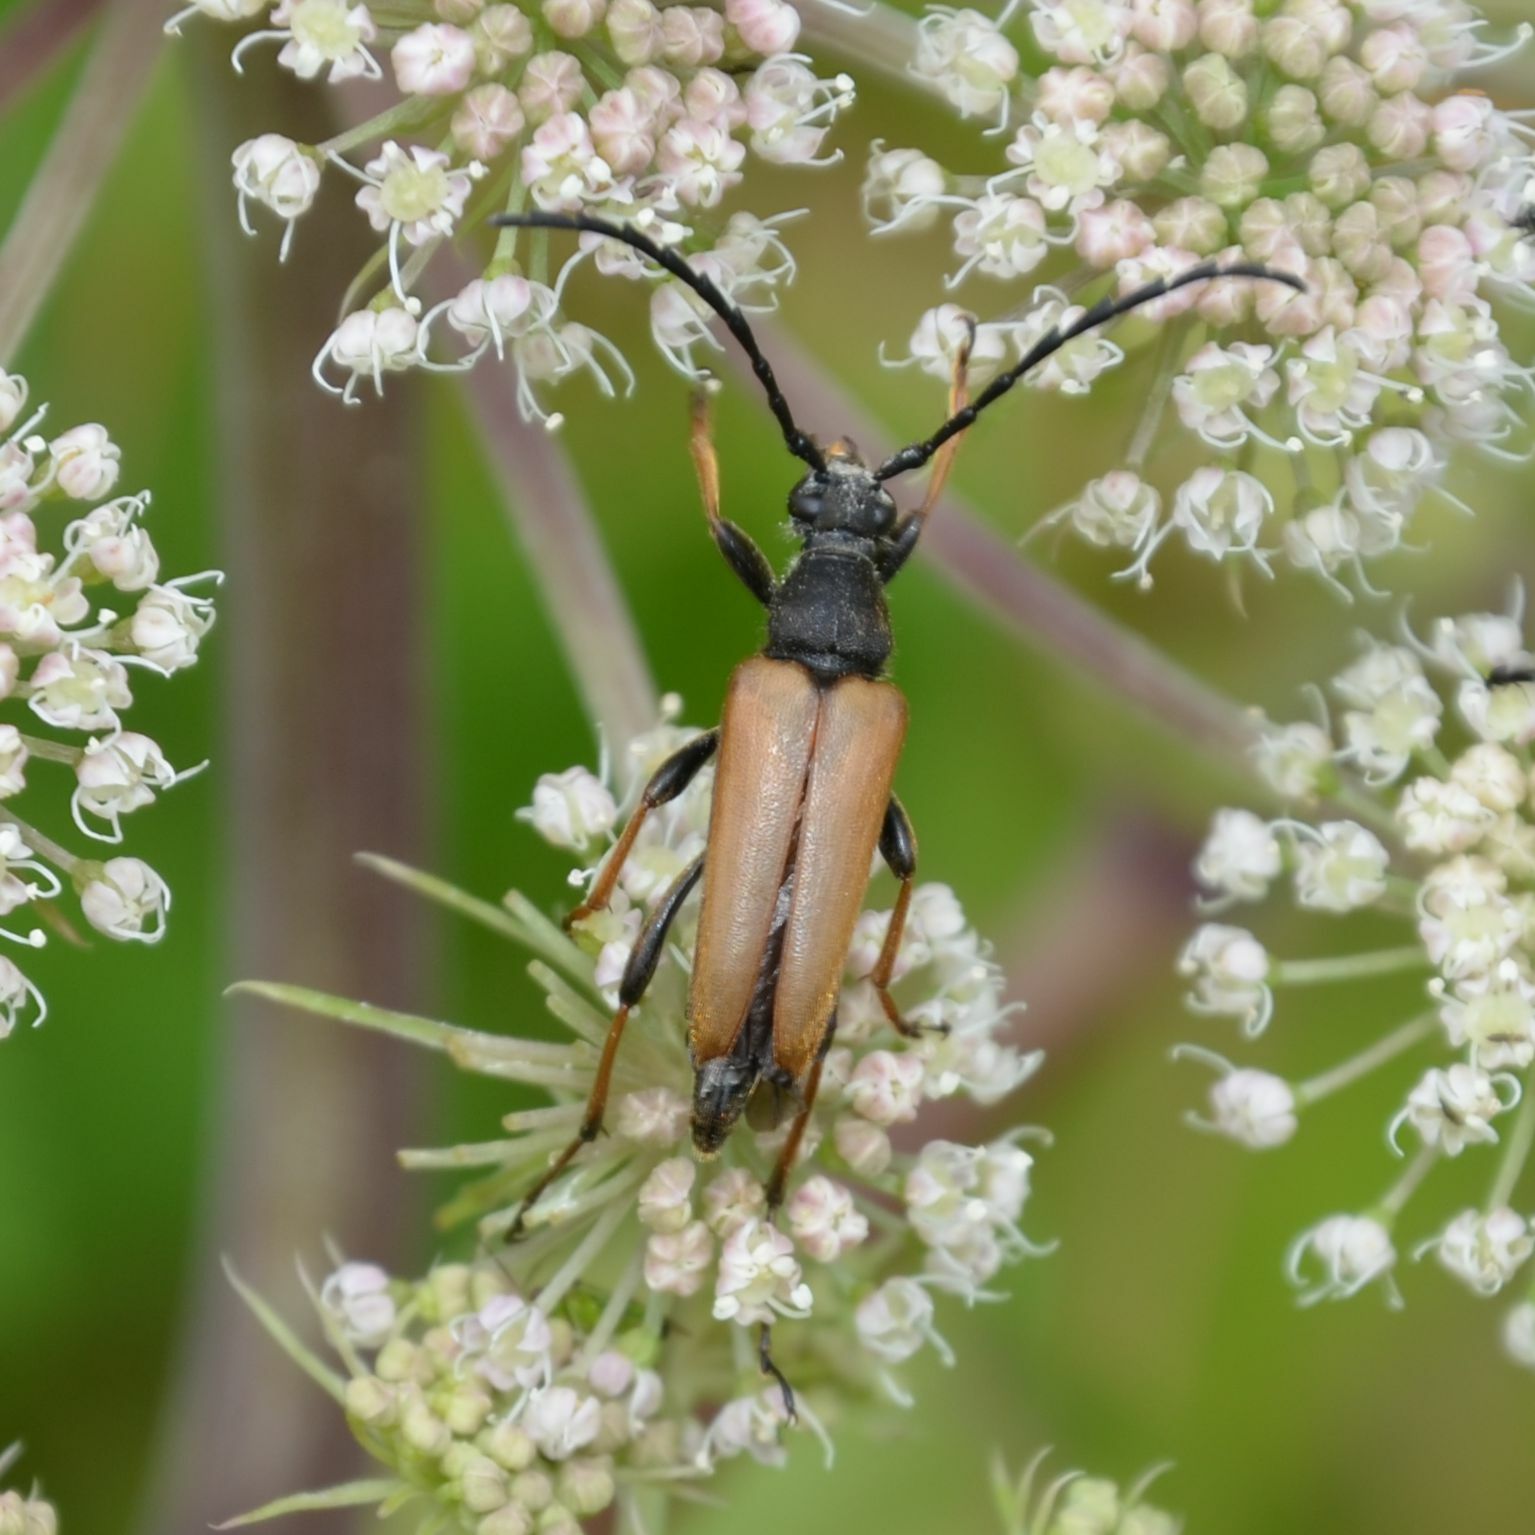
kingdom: Animalia
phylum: Arthropoda
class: Insecta
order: Coleoptera
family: Cerambycidae
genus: Stictoleptura
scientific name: Stictoleptura rubra
